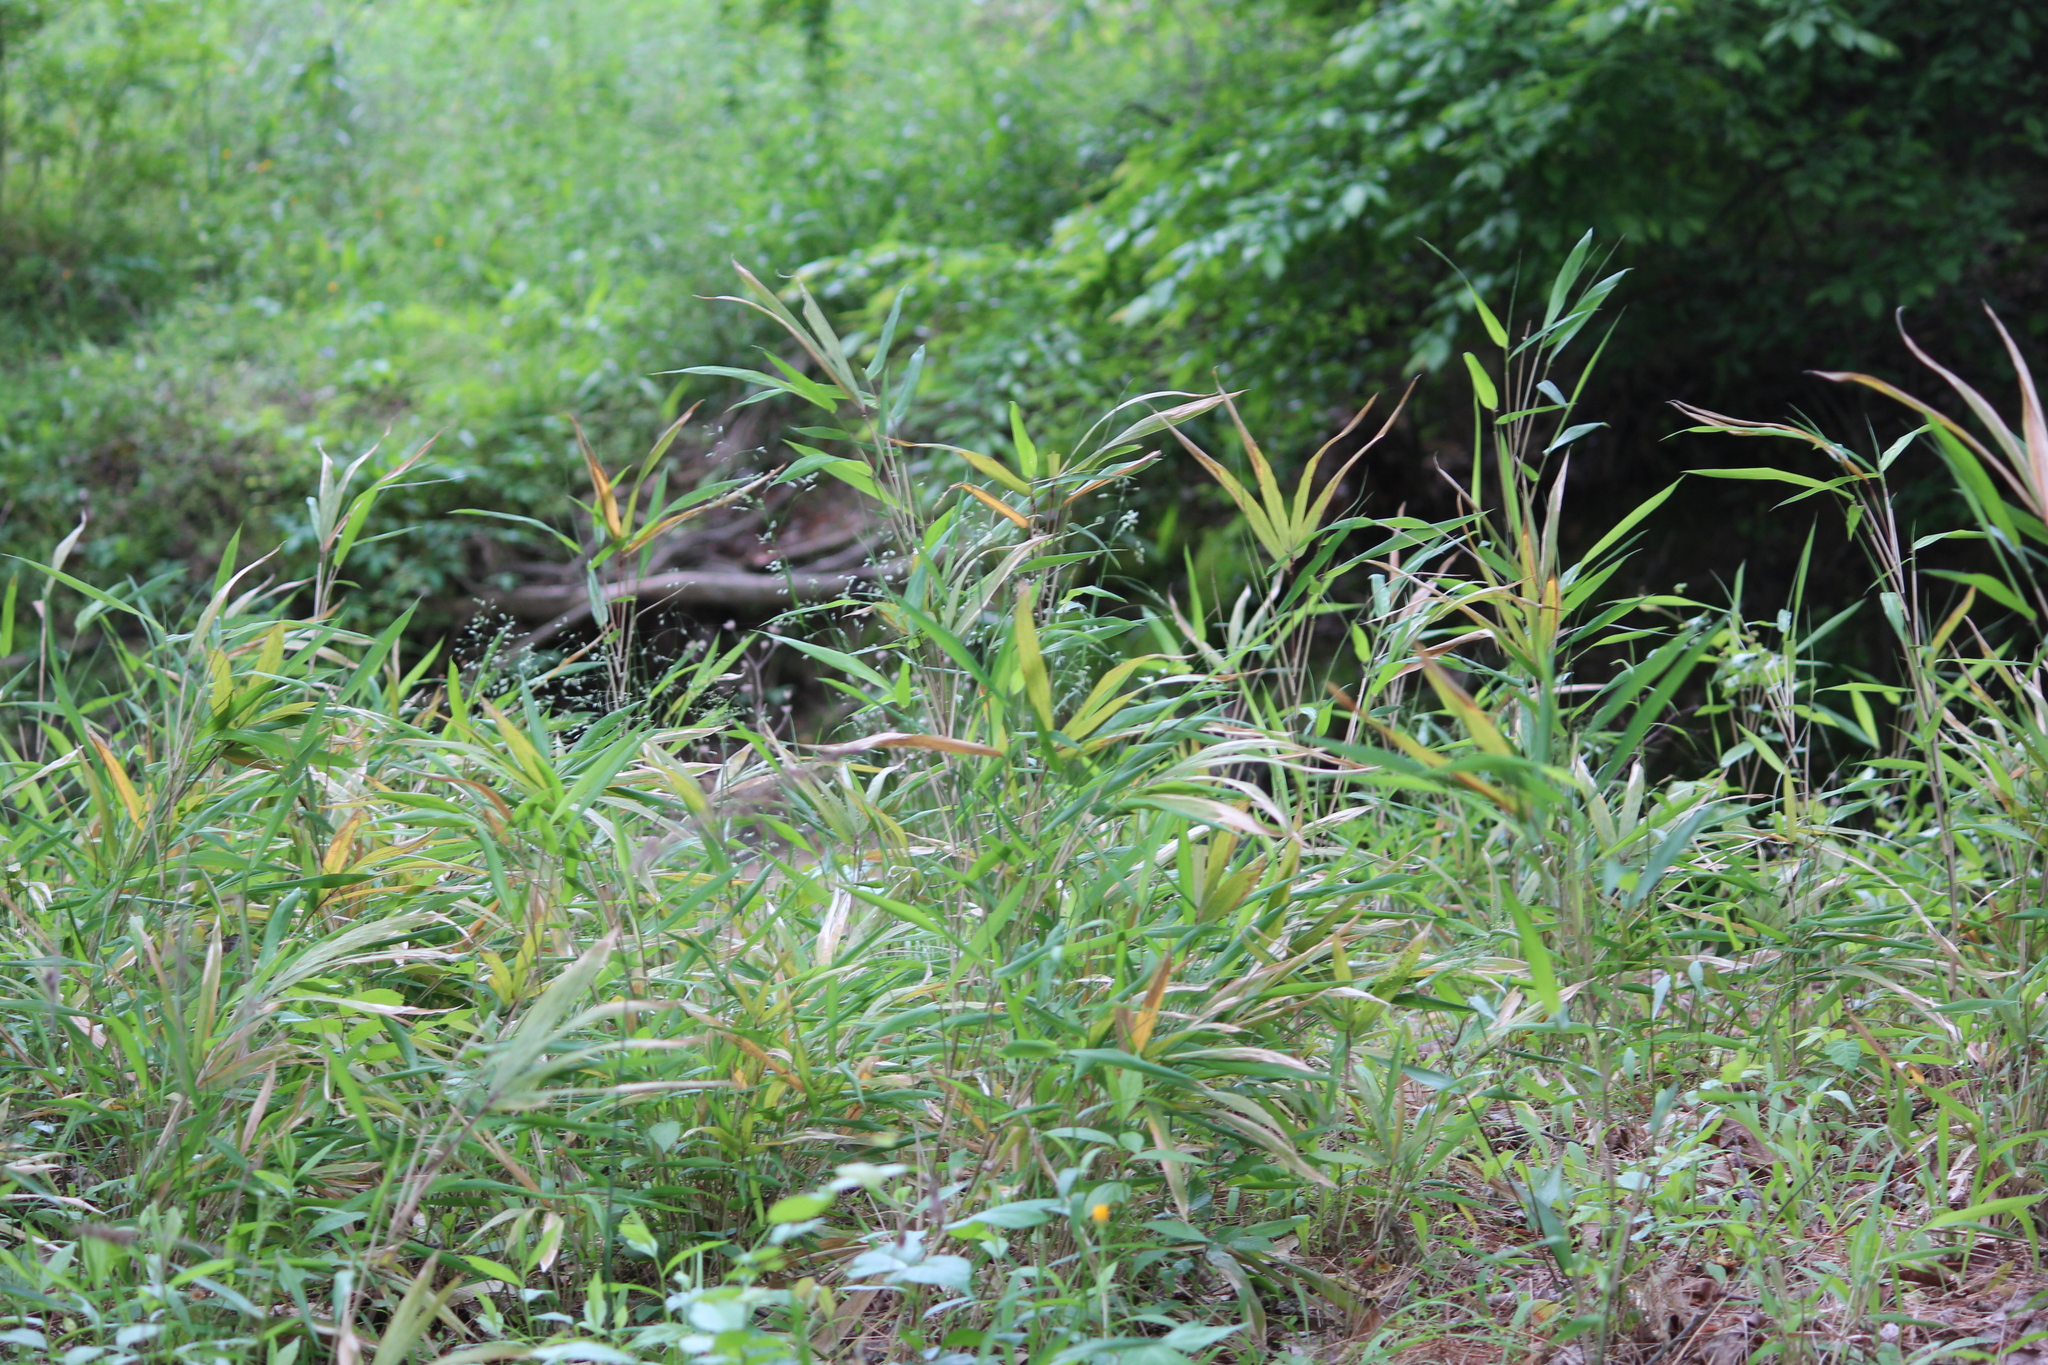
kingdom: Plantae
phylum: Tracheophyta
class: Liliopsida
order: Poales
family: Poaceae
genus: Arundinaria
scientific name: Arundinaria tecta
